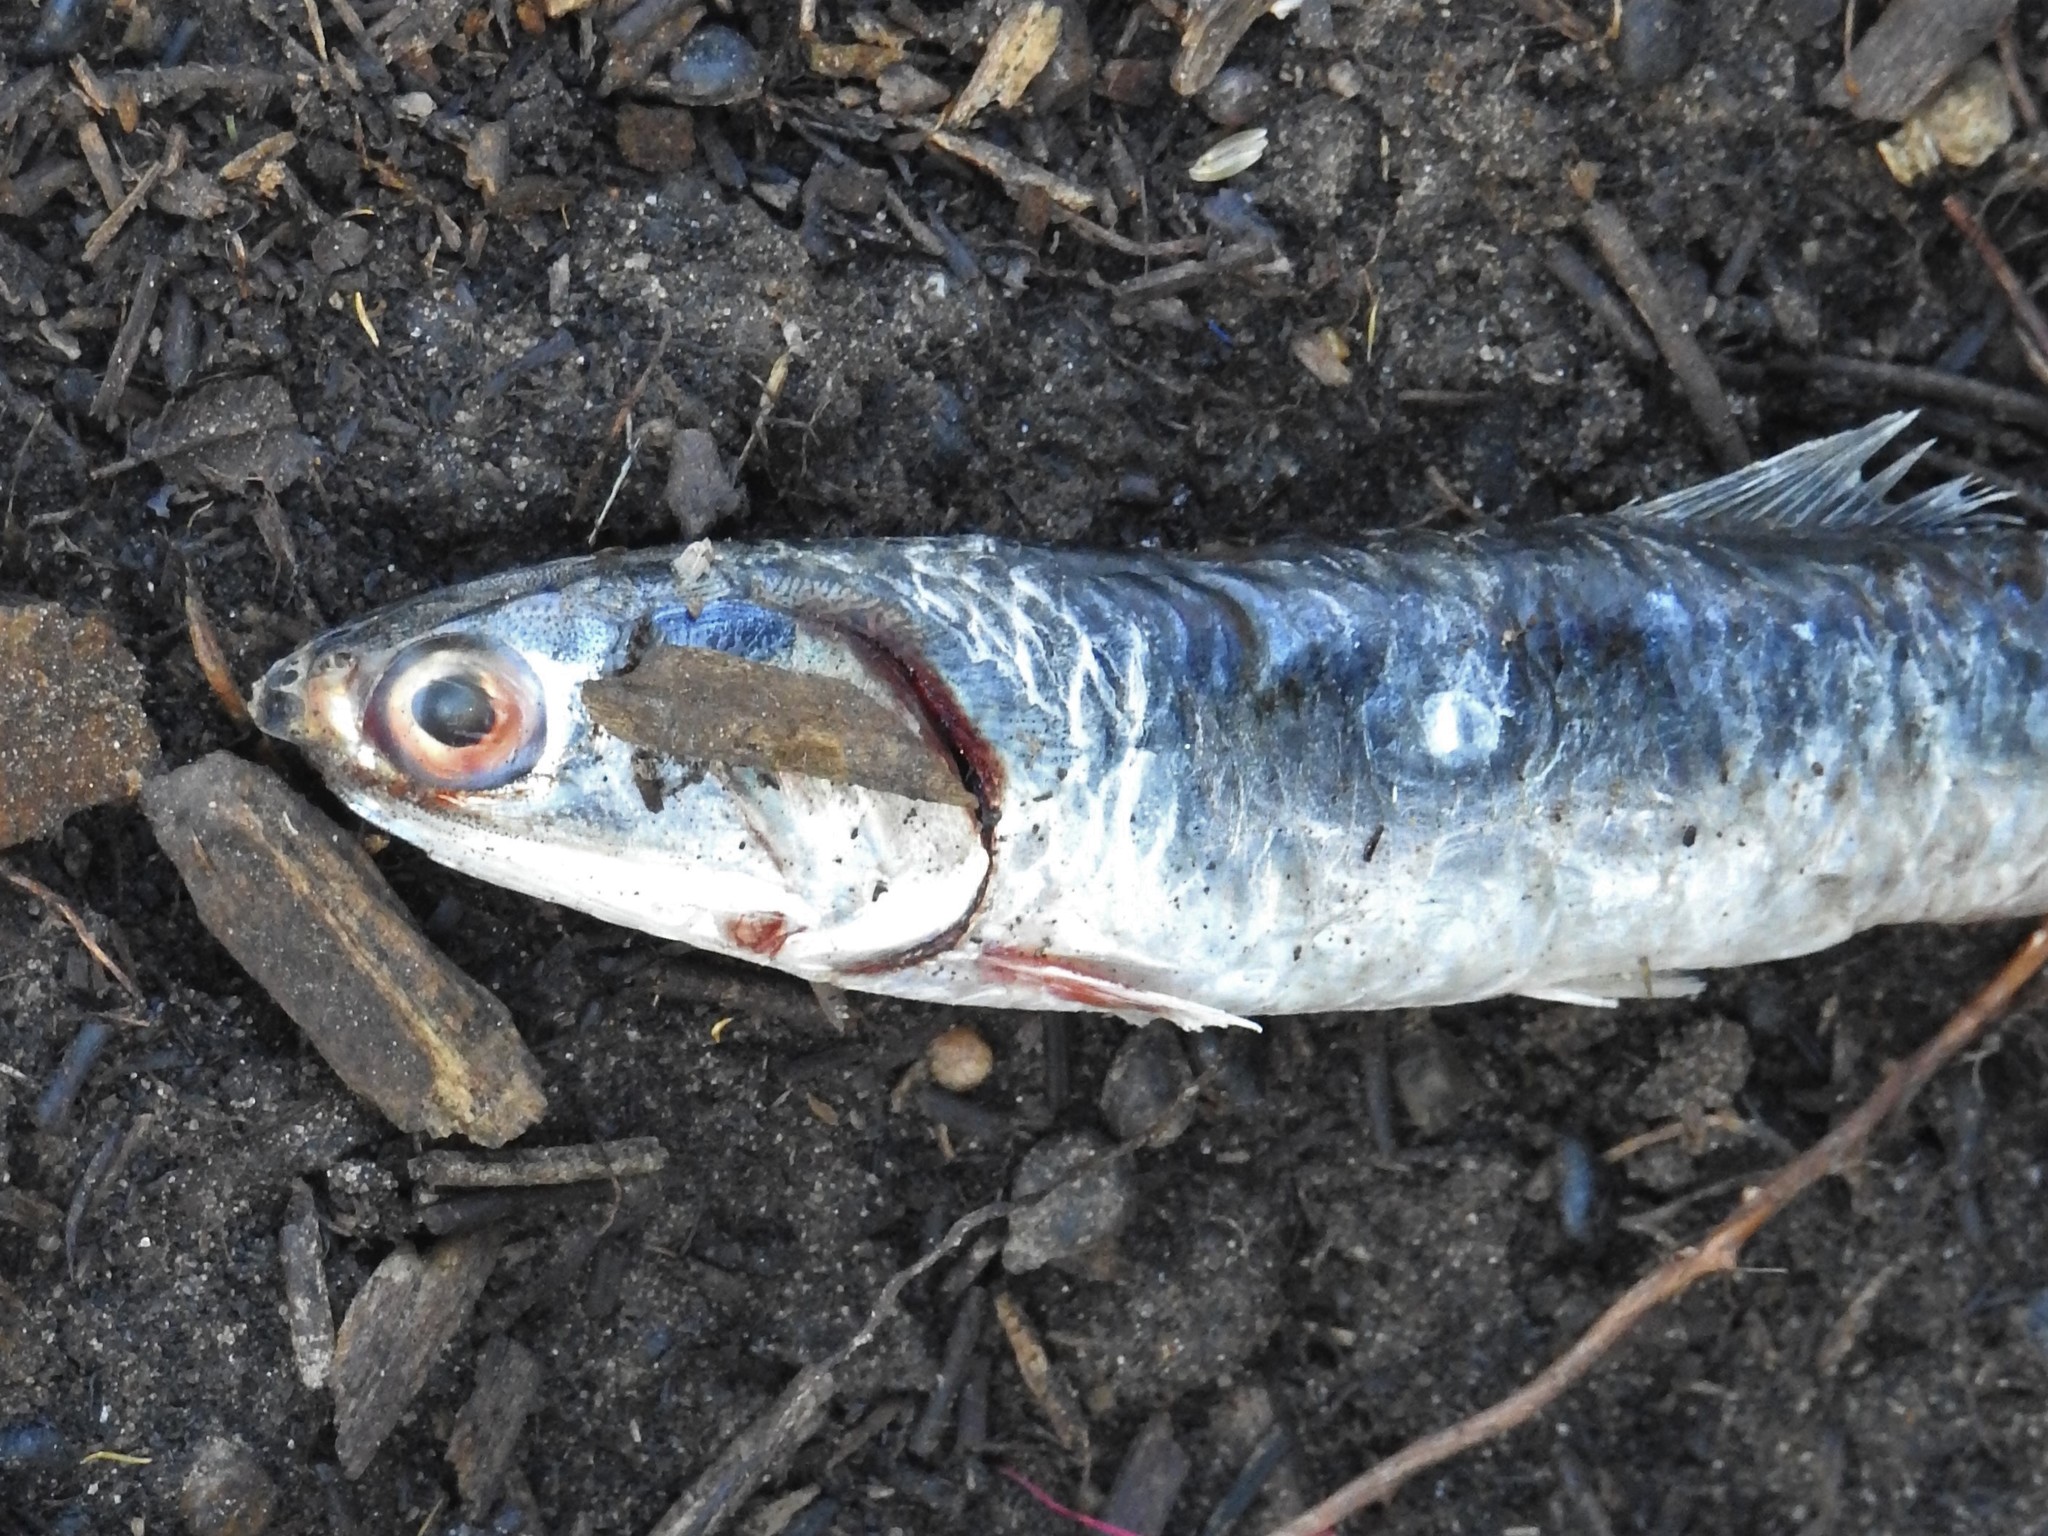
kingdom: Animalia
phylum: Chordata
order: Clupeiformes
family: Engraulidae
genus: Engraulis
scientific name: Engraulis mordax
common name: Northern anchovy
